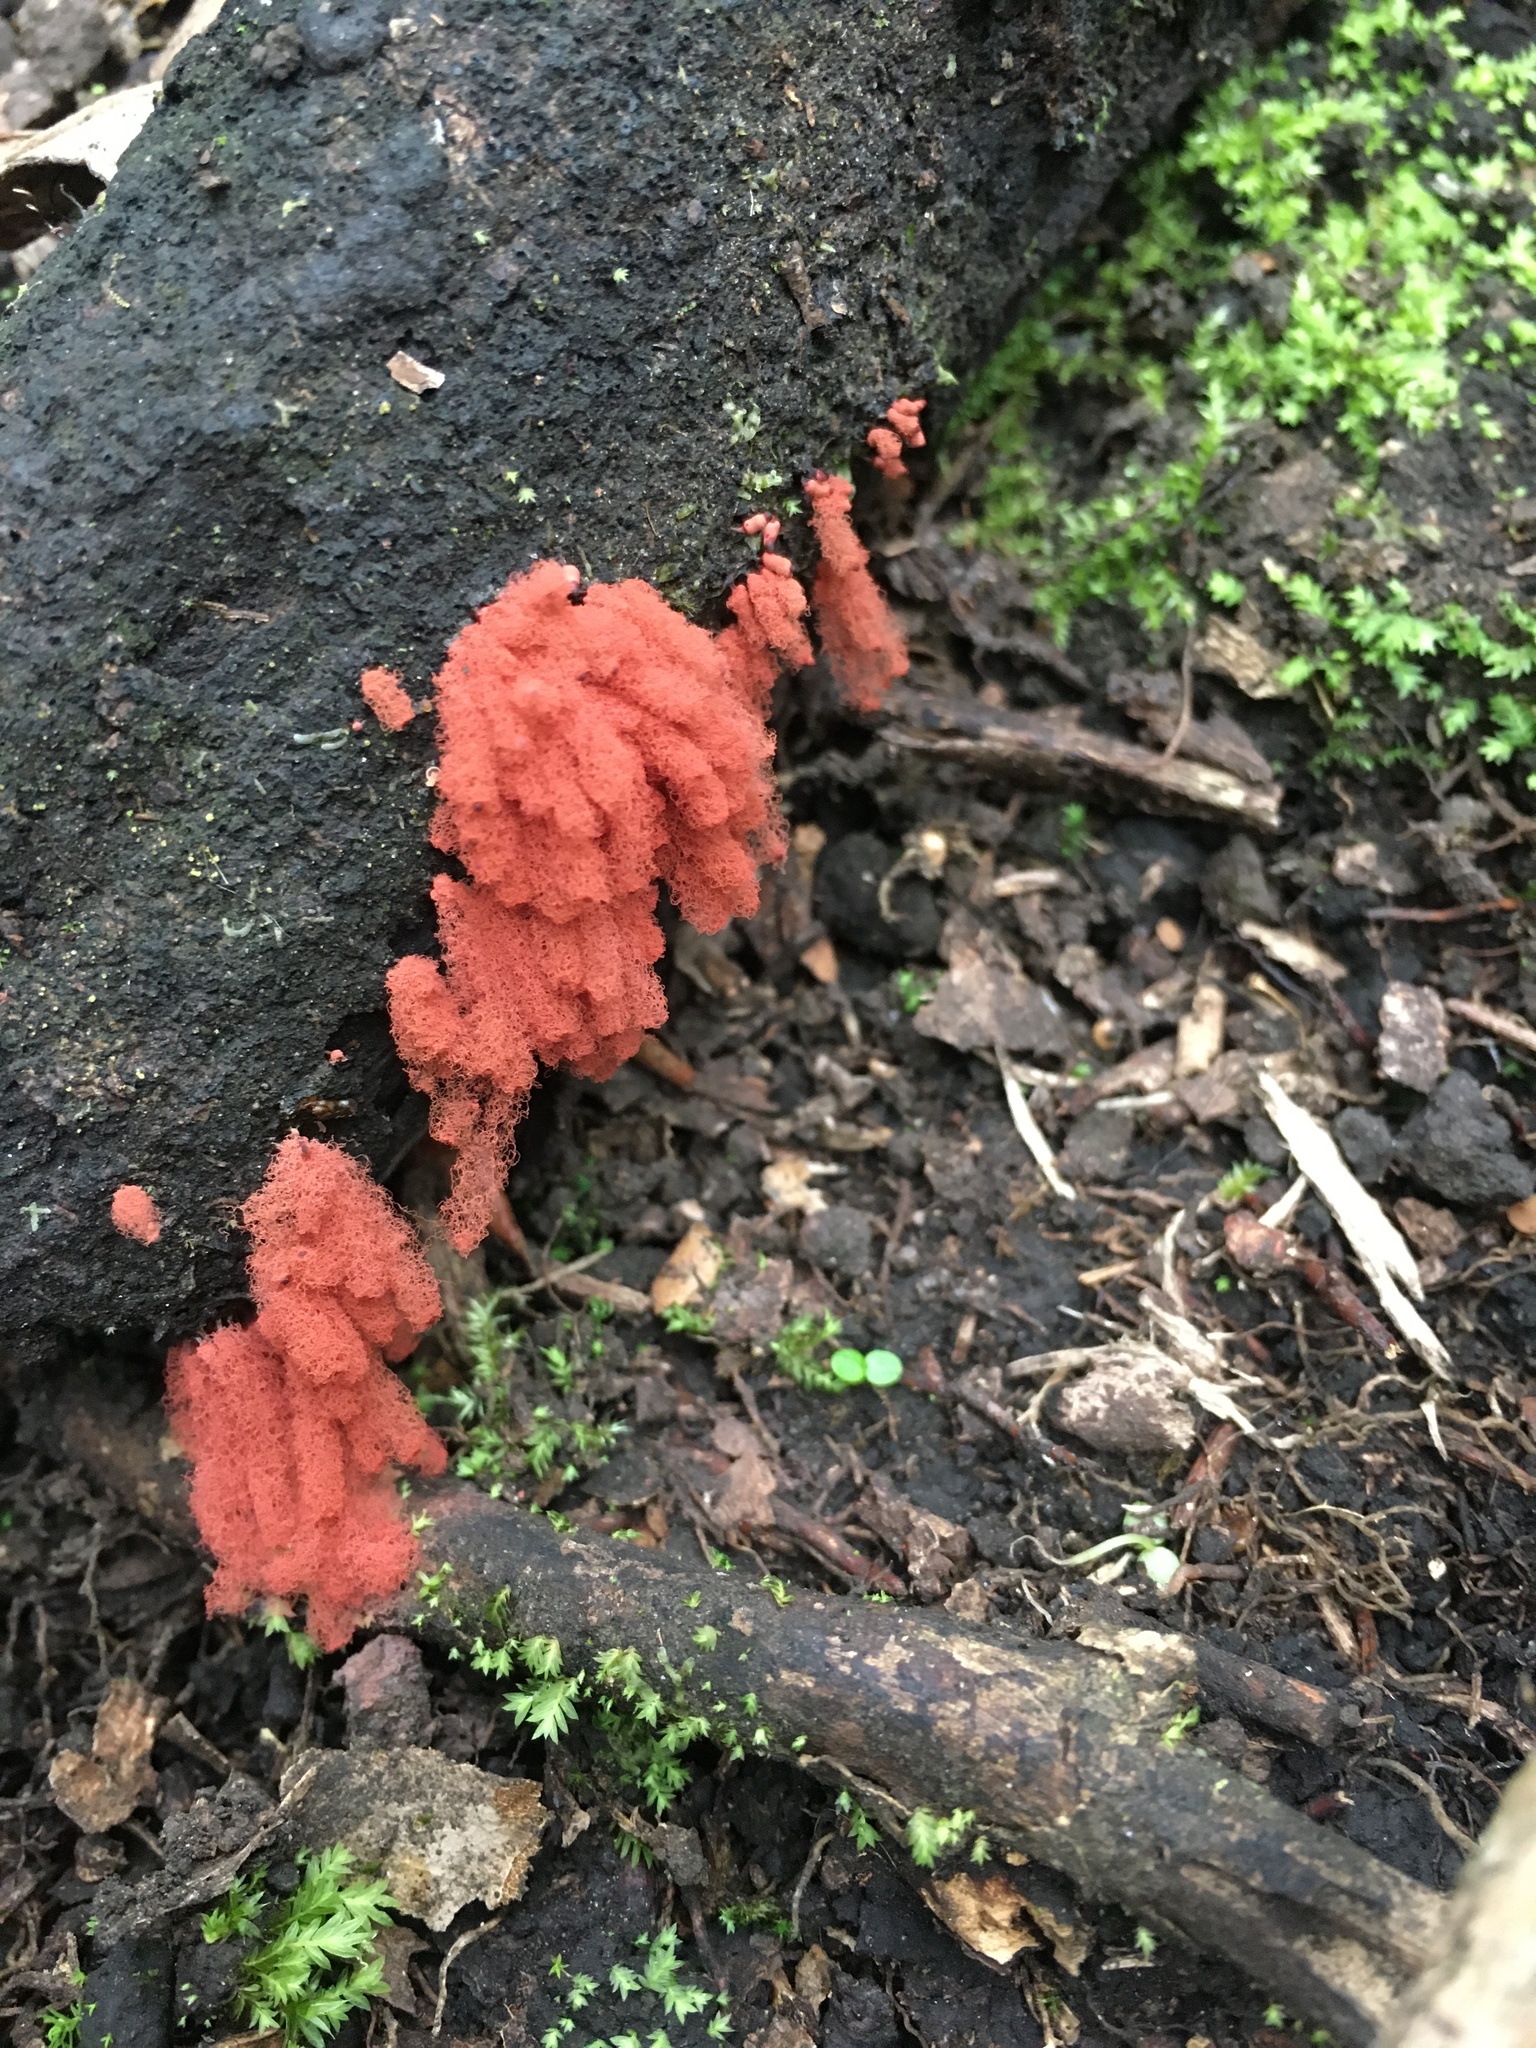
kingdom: Protozoa
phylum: Mycetozoa
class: Myxomycetes
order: Trichiales
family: Arcyriaceae
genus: Arcyria
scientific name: Arcyria denudata
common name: Carnival candy slime mold
